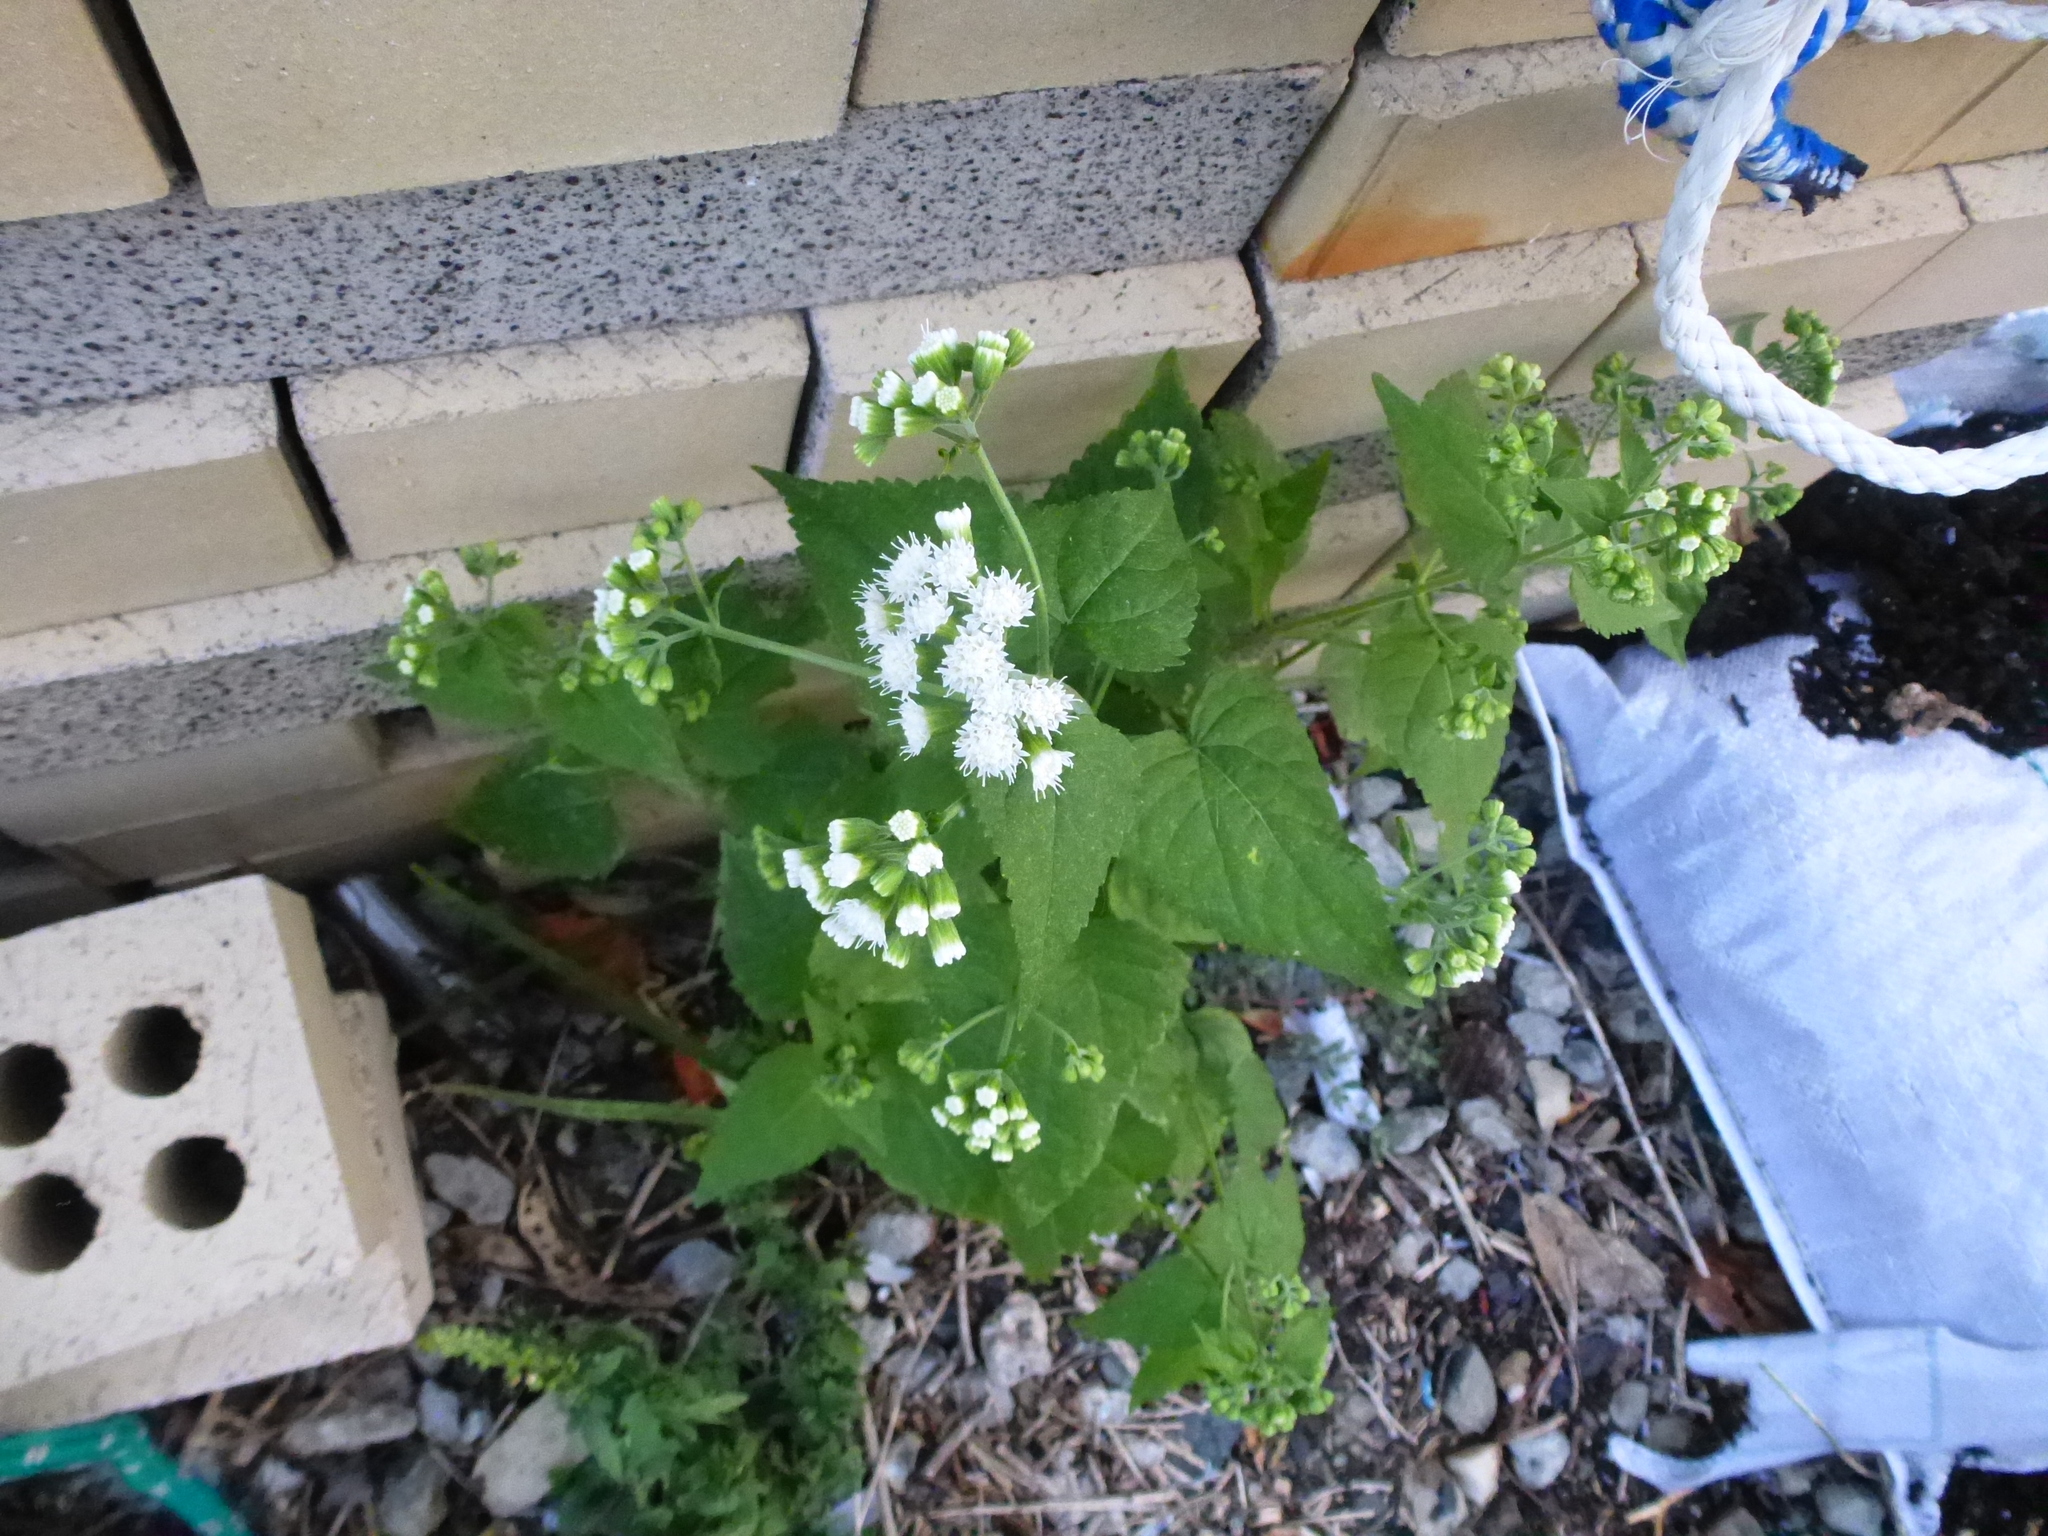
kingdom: Plantae
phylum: Tracheophyta
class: Magnoliopsida
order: Asterales
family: Asteraceae
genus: Ageratina
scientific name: Ageratina altissima
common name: White snakeroot
